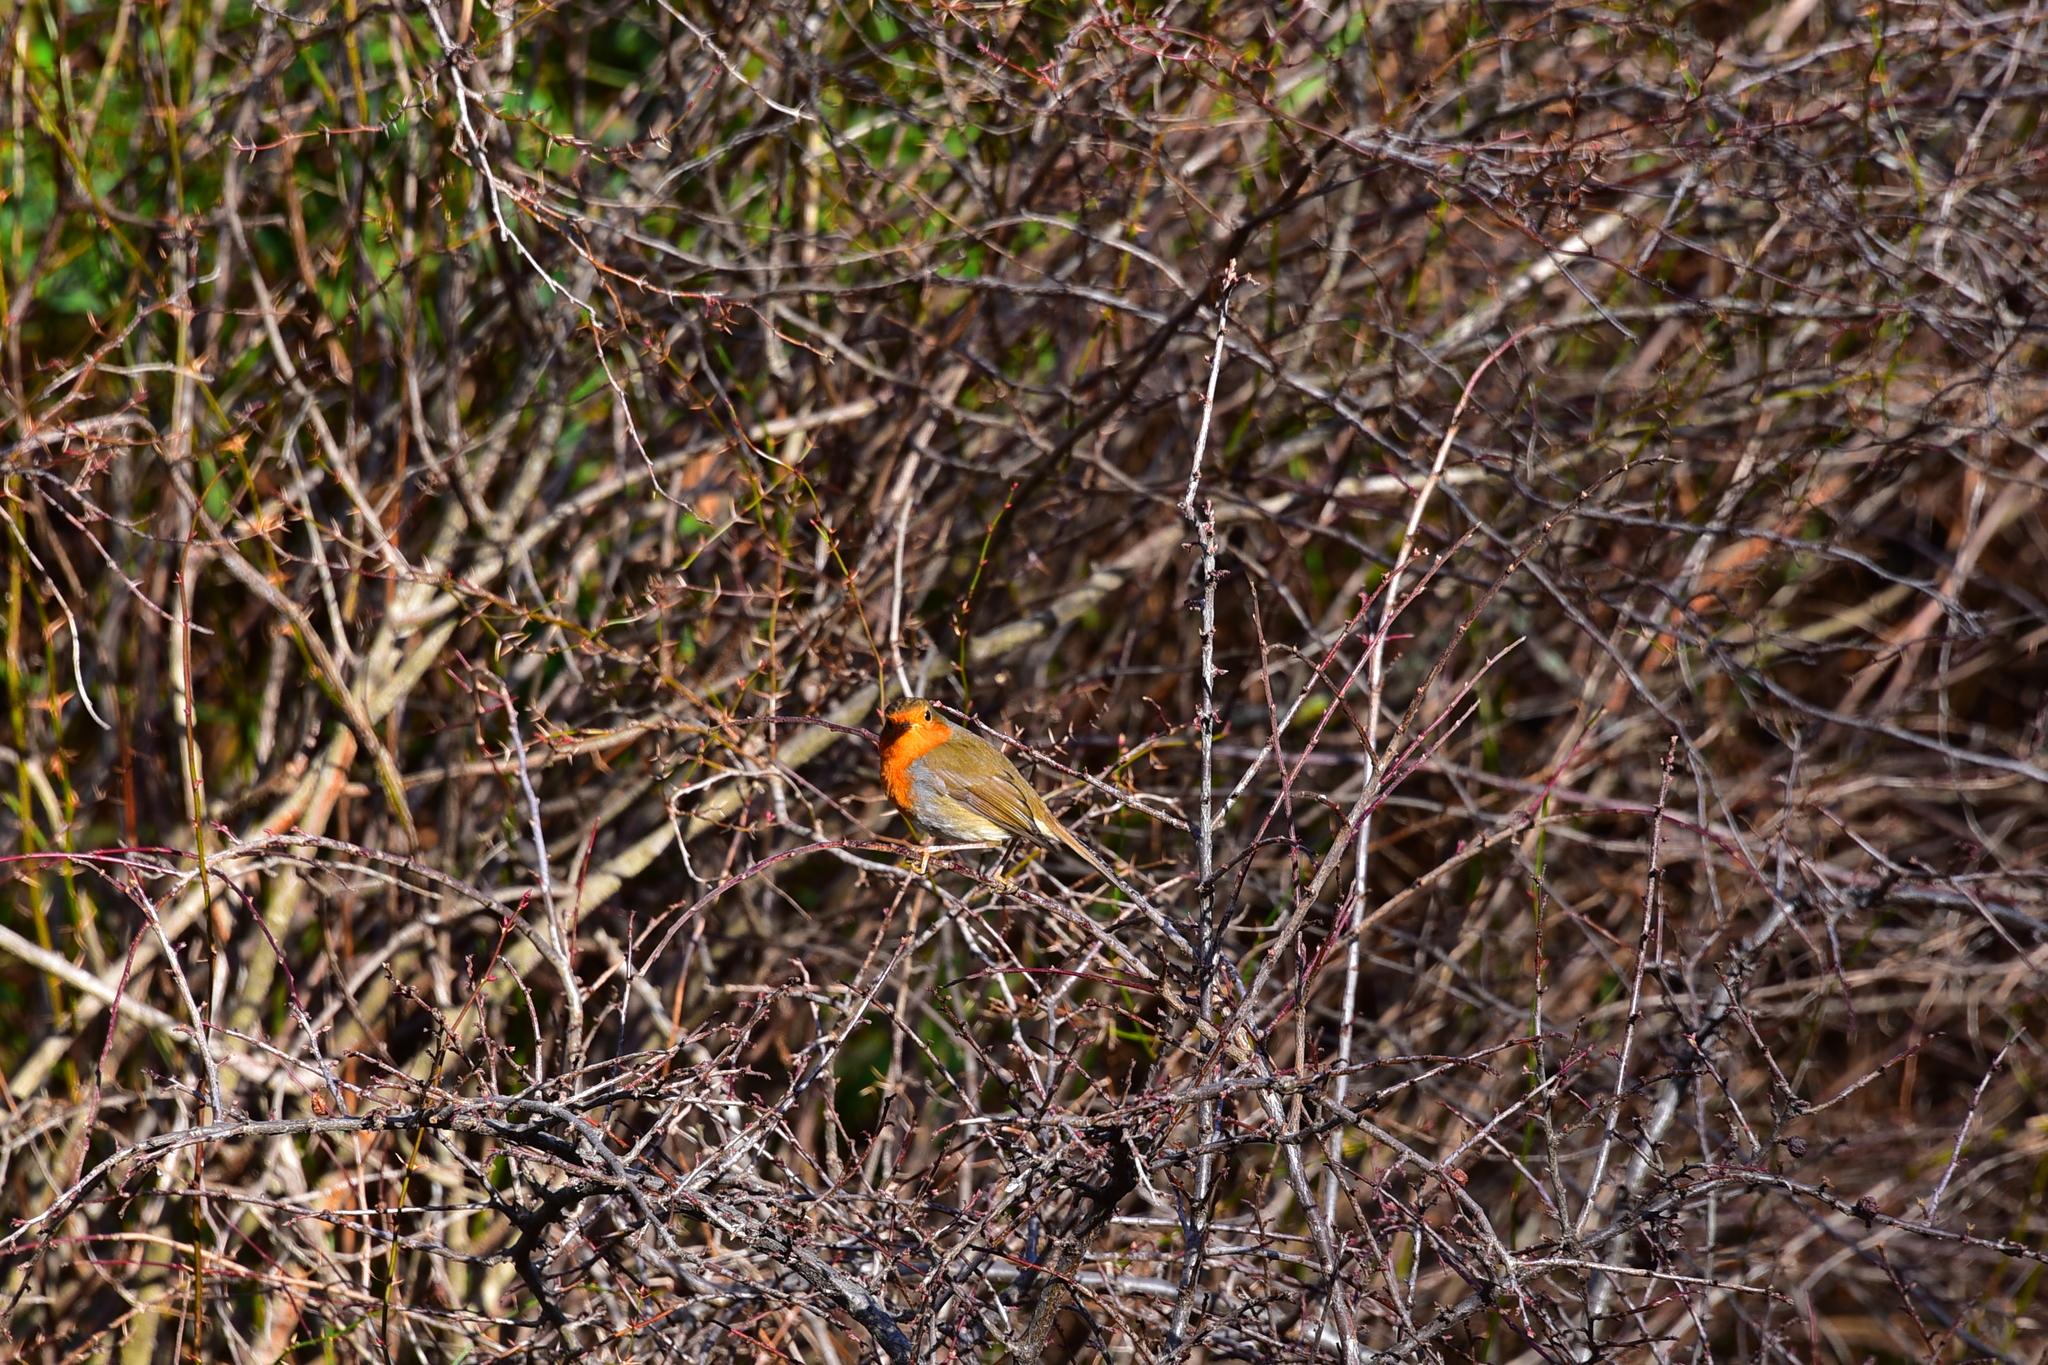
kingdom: Animalia
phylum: Chordata
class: Aves
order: Passeriformes
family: Muscicapidae
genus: Erithacus
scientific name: Erithacus rubecula
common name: European robin
